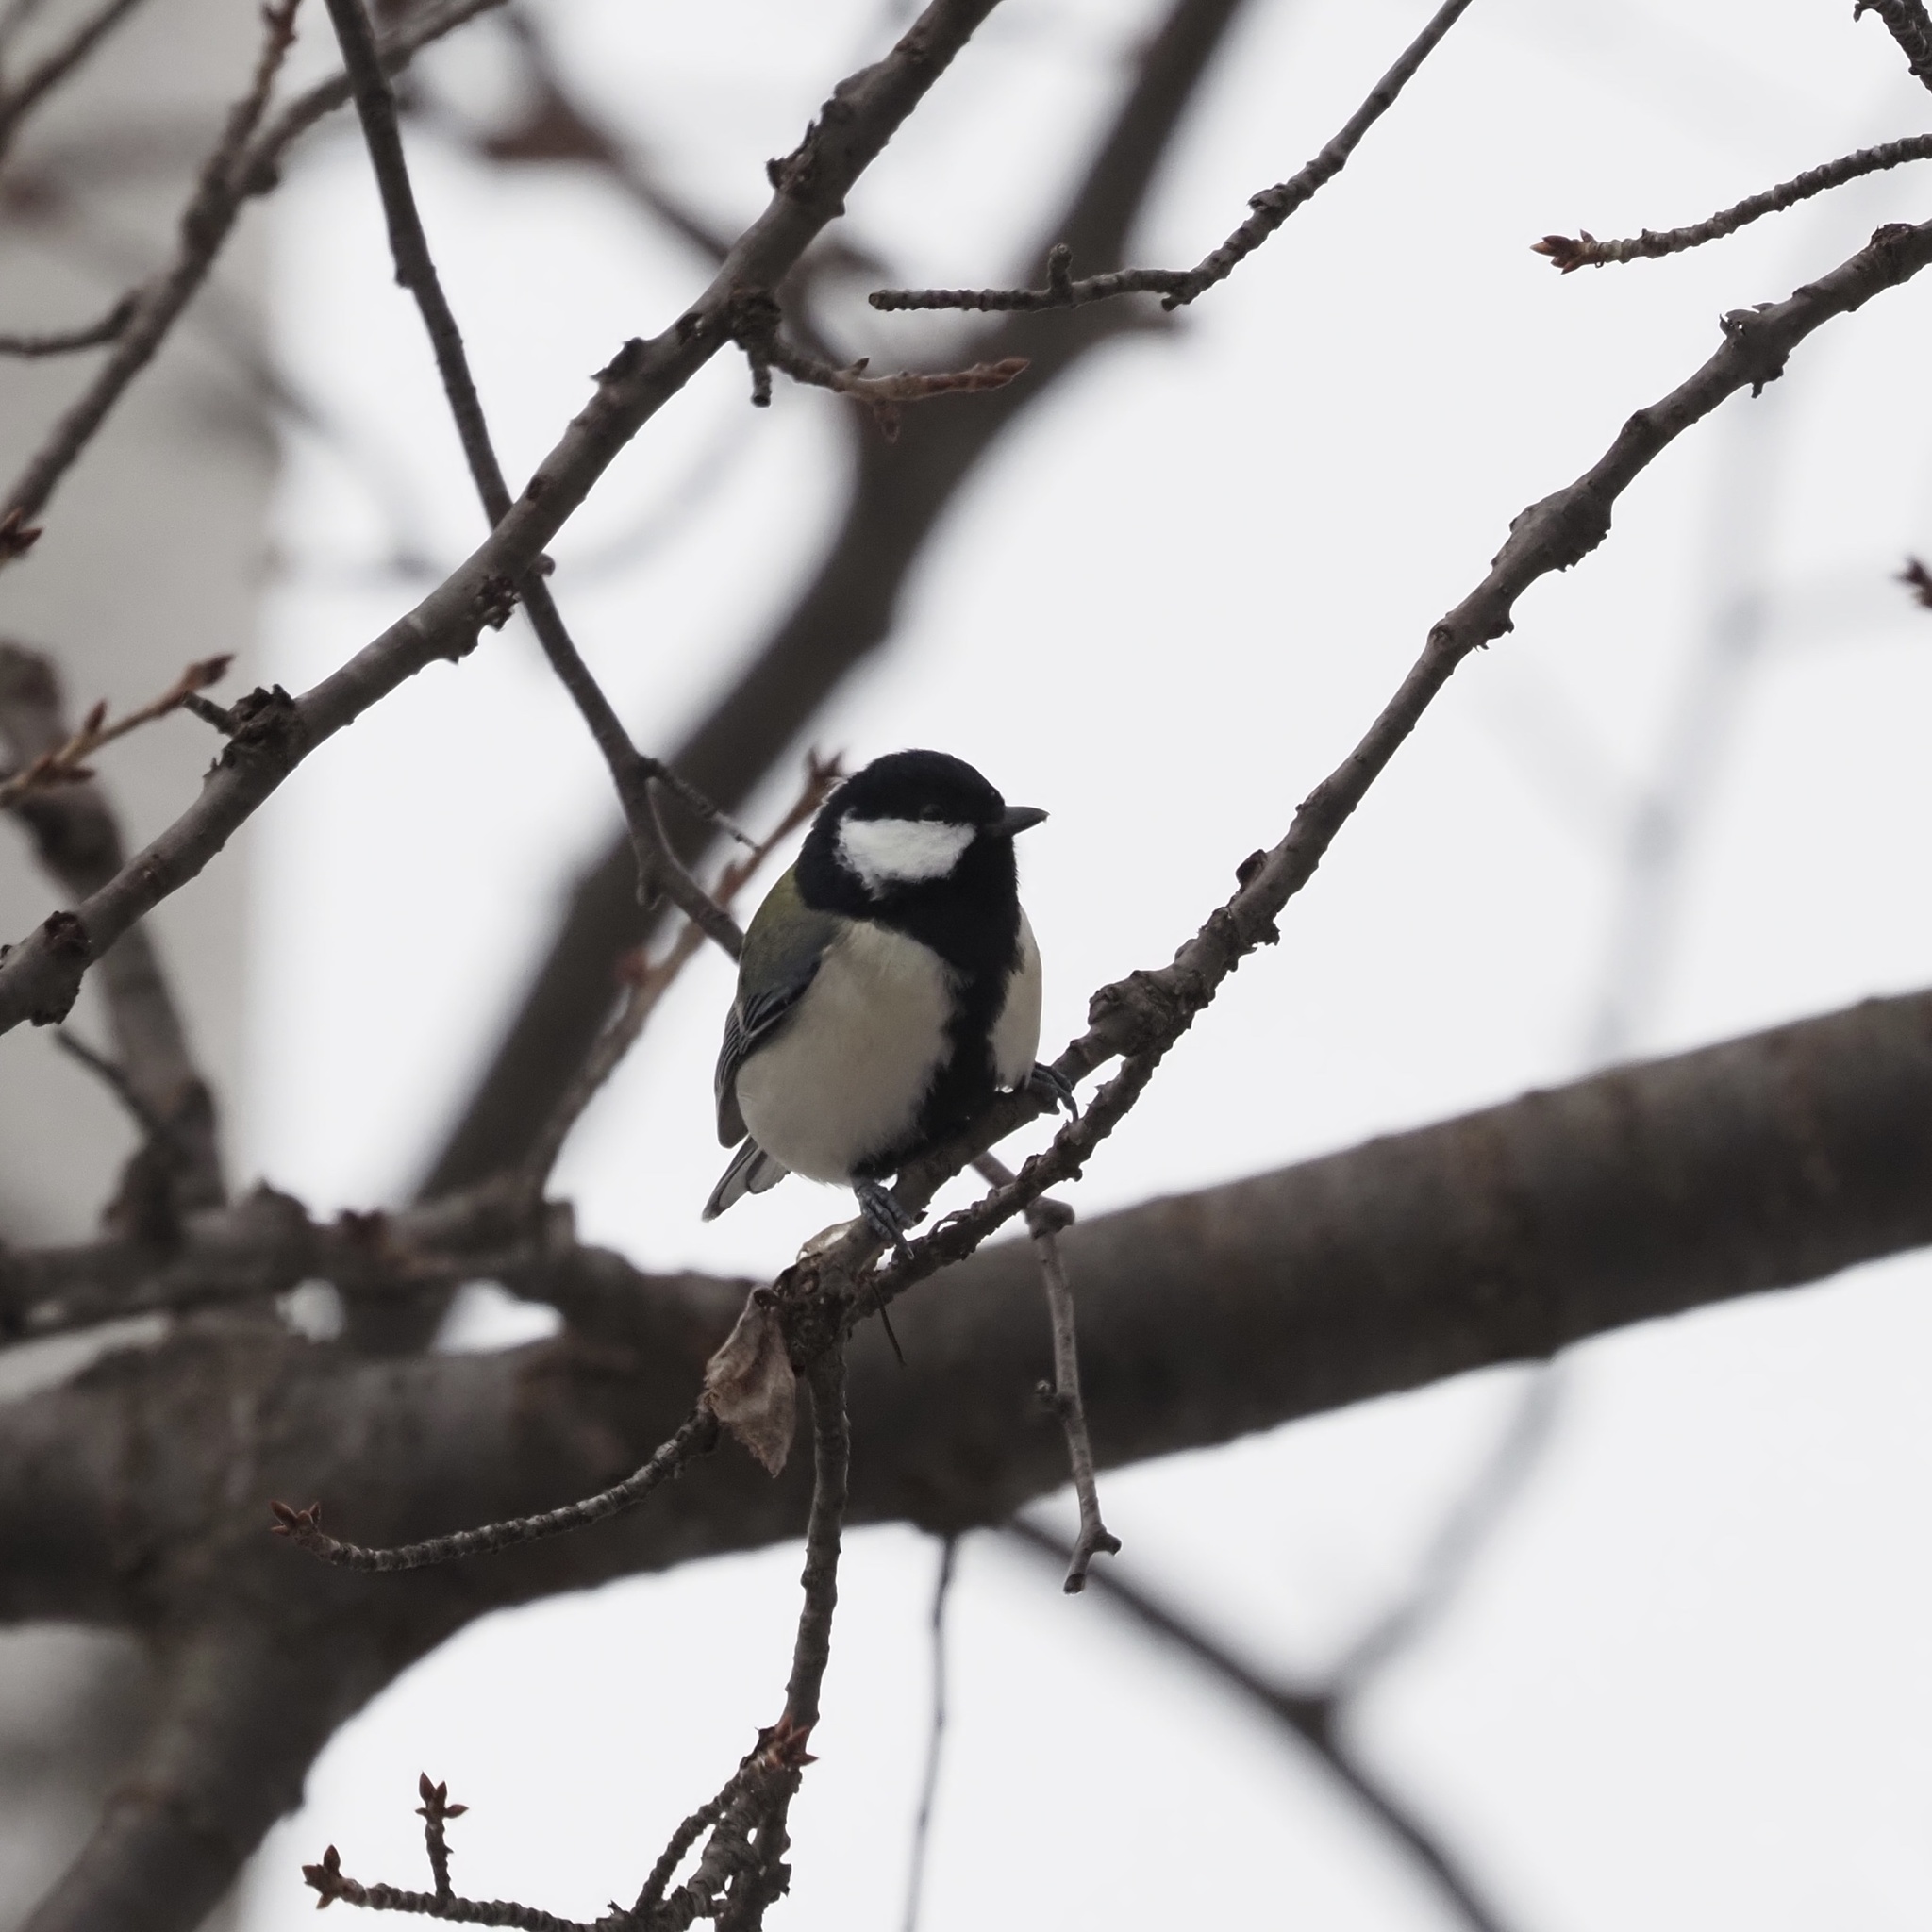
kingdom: Animalia
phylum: Chordata
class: Aves
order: Passeriformes
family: Paridae
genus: Parus
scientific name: Parus minor
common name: Japanese tit
